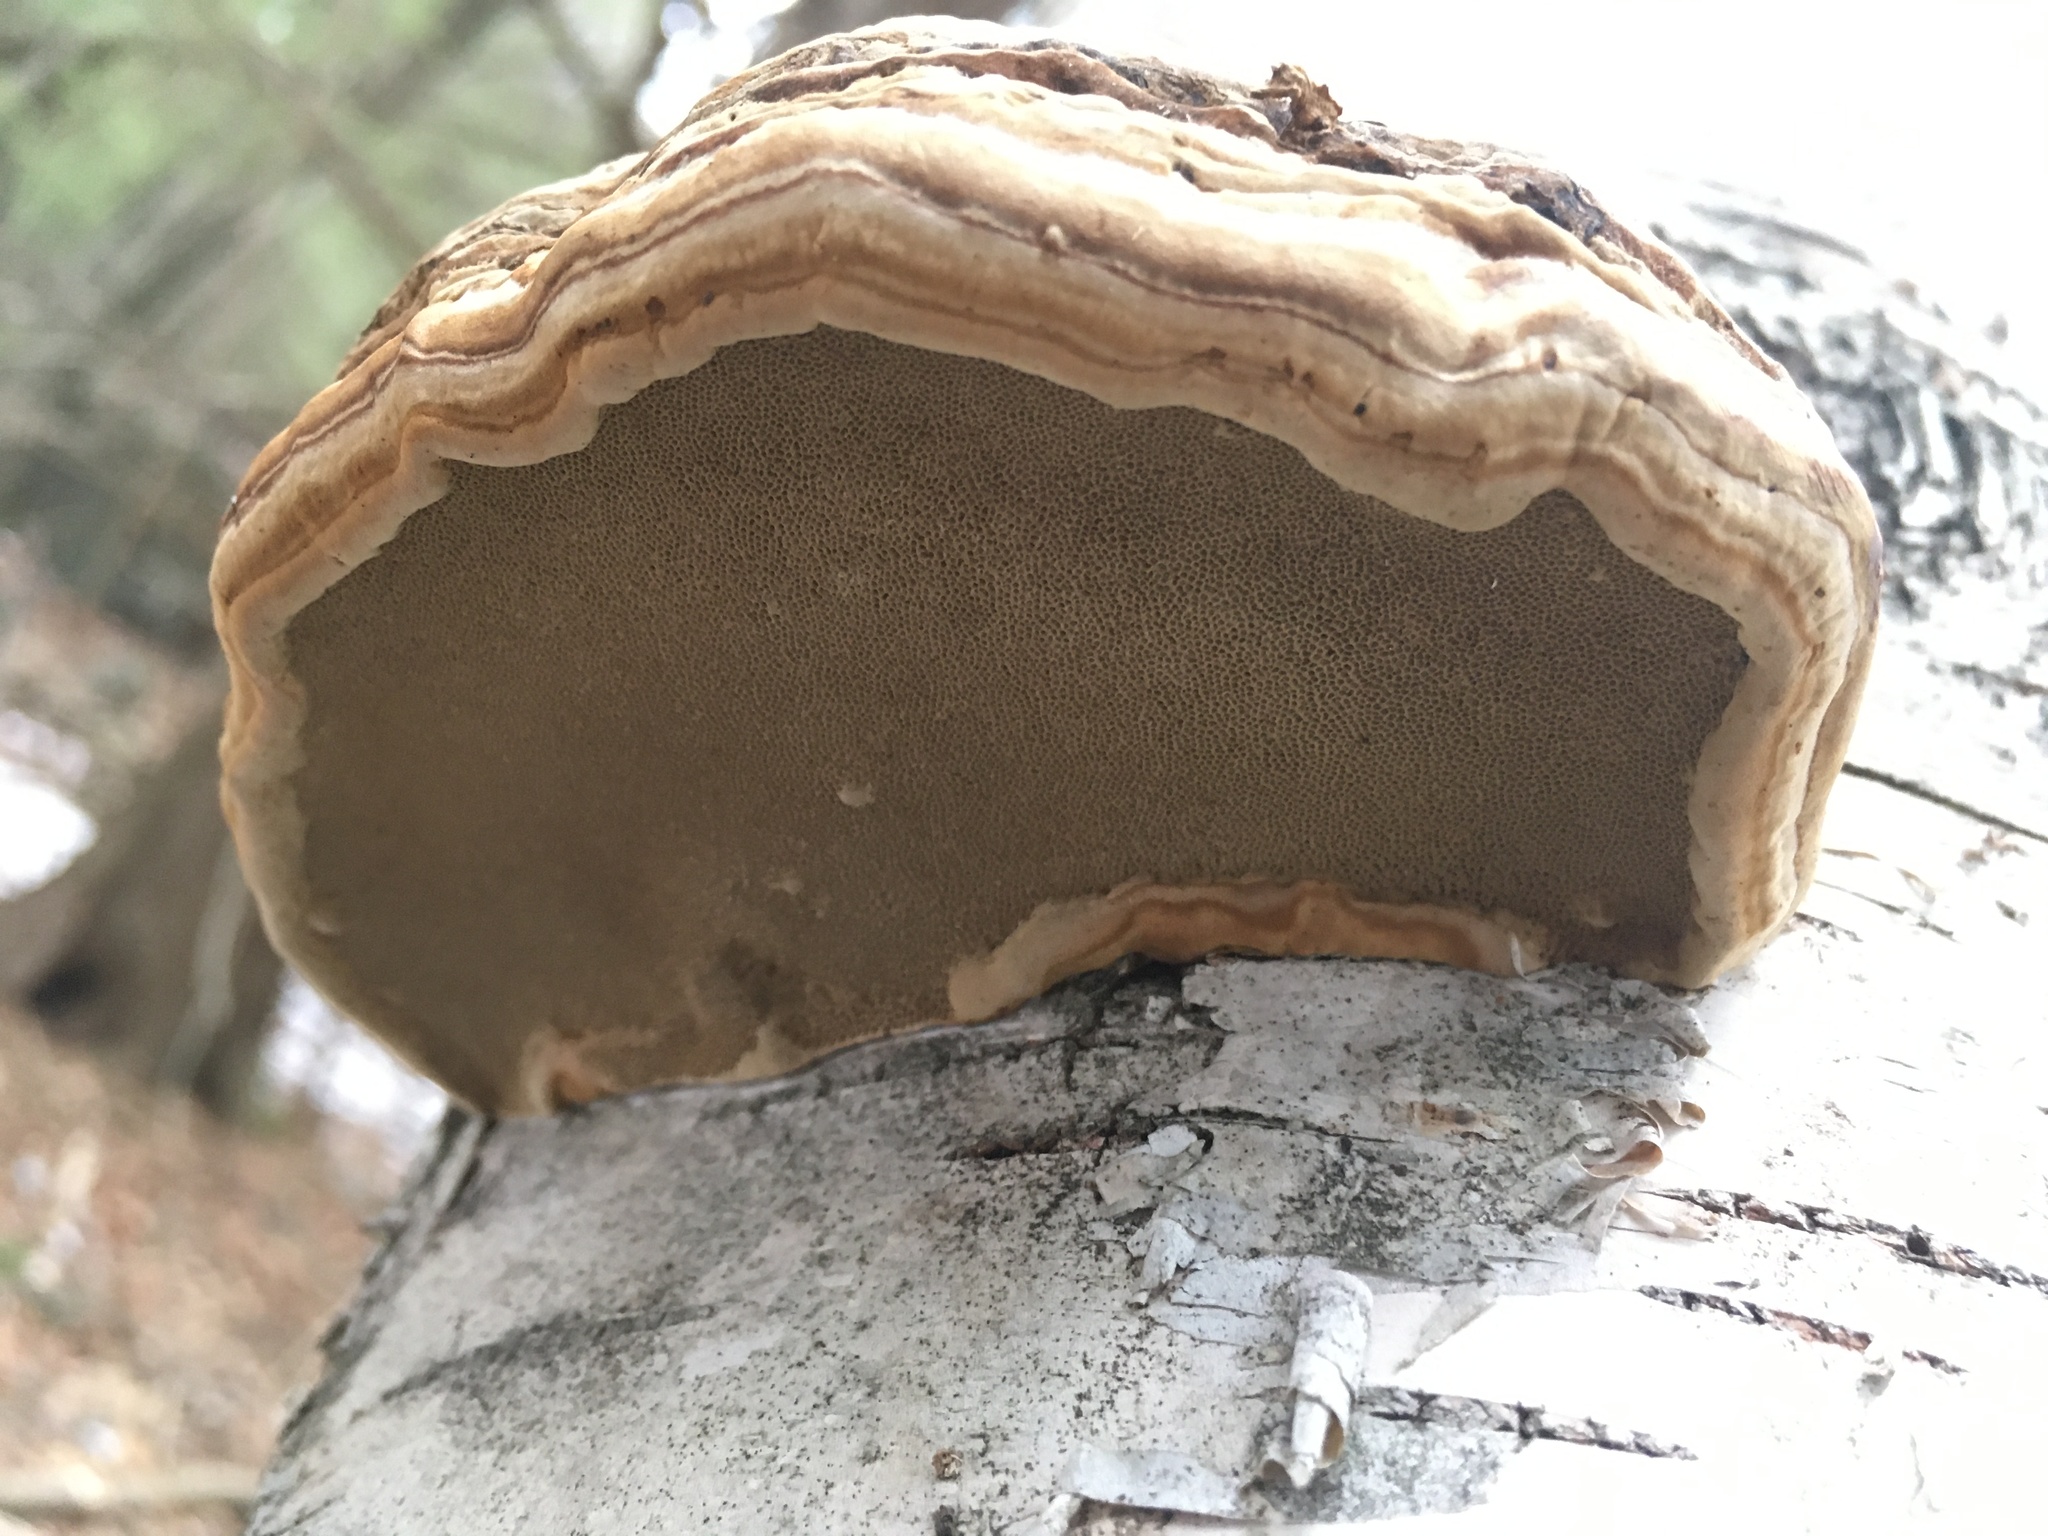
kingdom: Fungi
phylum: Basidiomycota
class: Agaricomycetes
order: Polyporales
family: Polyporaceae
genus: Fomes
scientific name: Fomes fomentarius
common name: Hoof fungus
